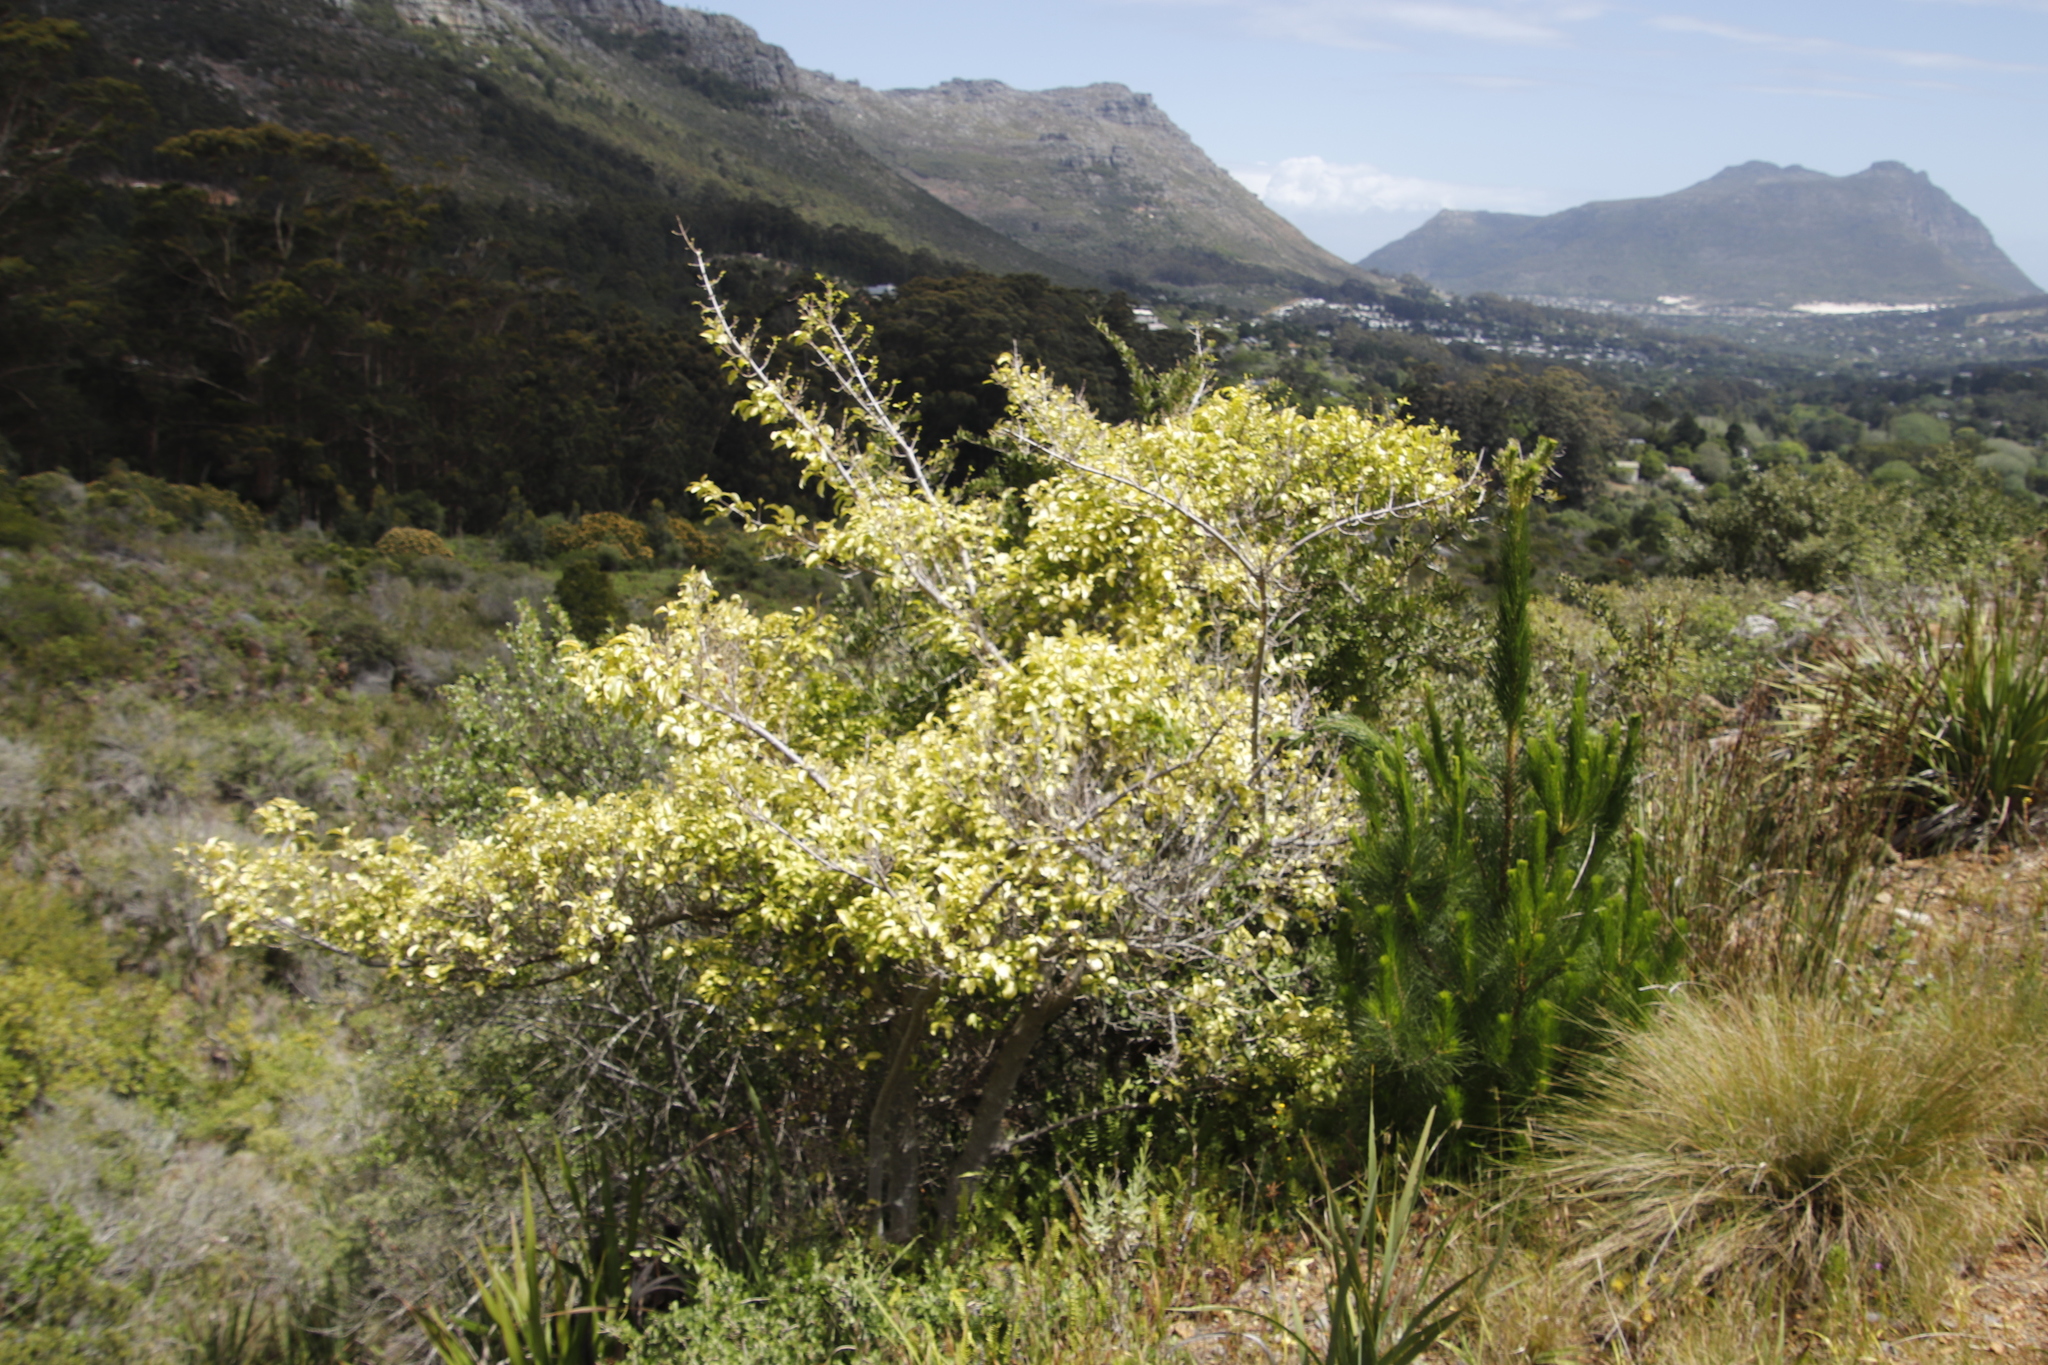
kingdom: Plantae
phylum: Tracheophyta
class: Magnoliopsida
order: Gentianales
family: Rubiaceae
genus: Canthium
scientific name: Canthium inerme
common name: Unarmed turkey-berry
